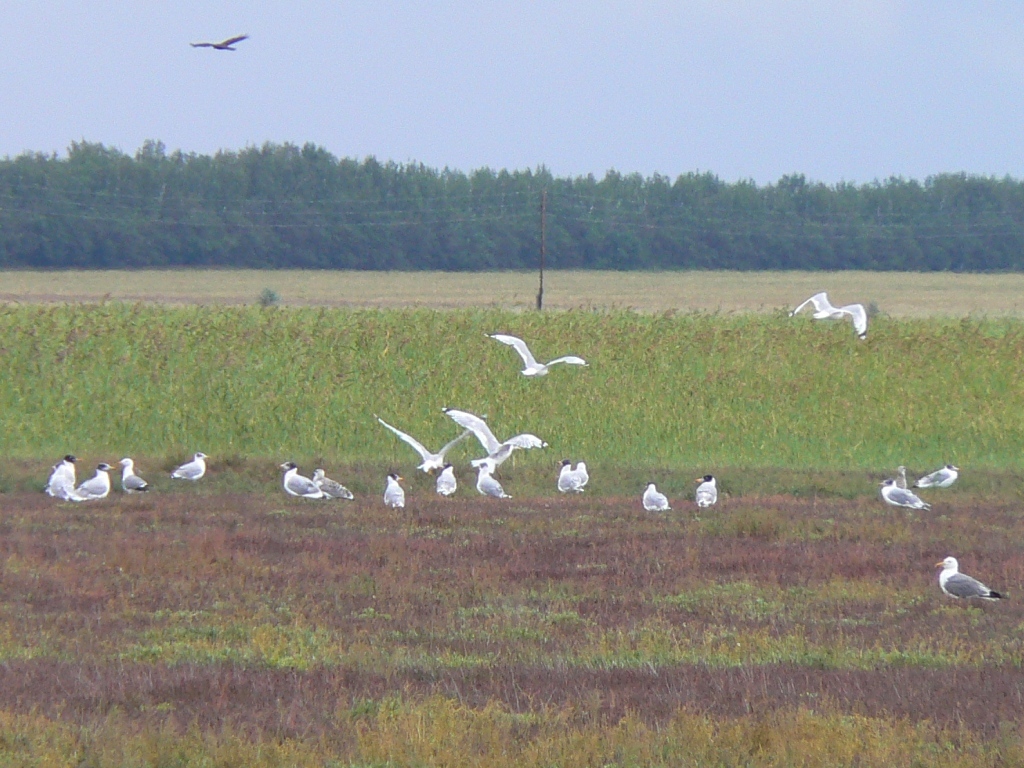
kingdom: Animalia
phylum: Chordata
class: Aves
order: Charadriiformes
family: Laridae
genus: Ichthyaetus
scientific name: Ichthyaetus ichthyaetus
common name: Pallas's gull
